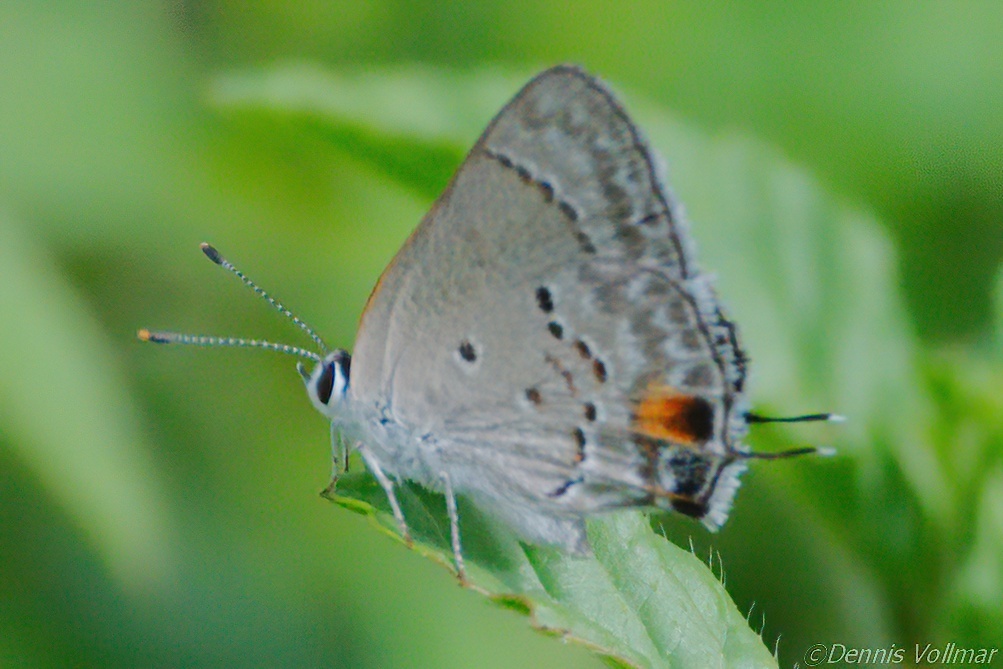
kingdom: Animalia
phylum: Arthropoda
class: Insecta
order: Lepidoptera
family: Lycaenidae
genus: Callicista
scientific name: Callicista columella
